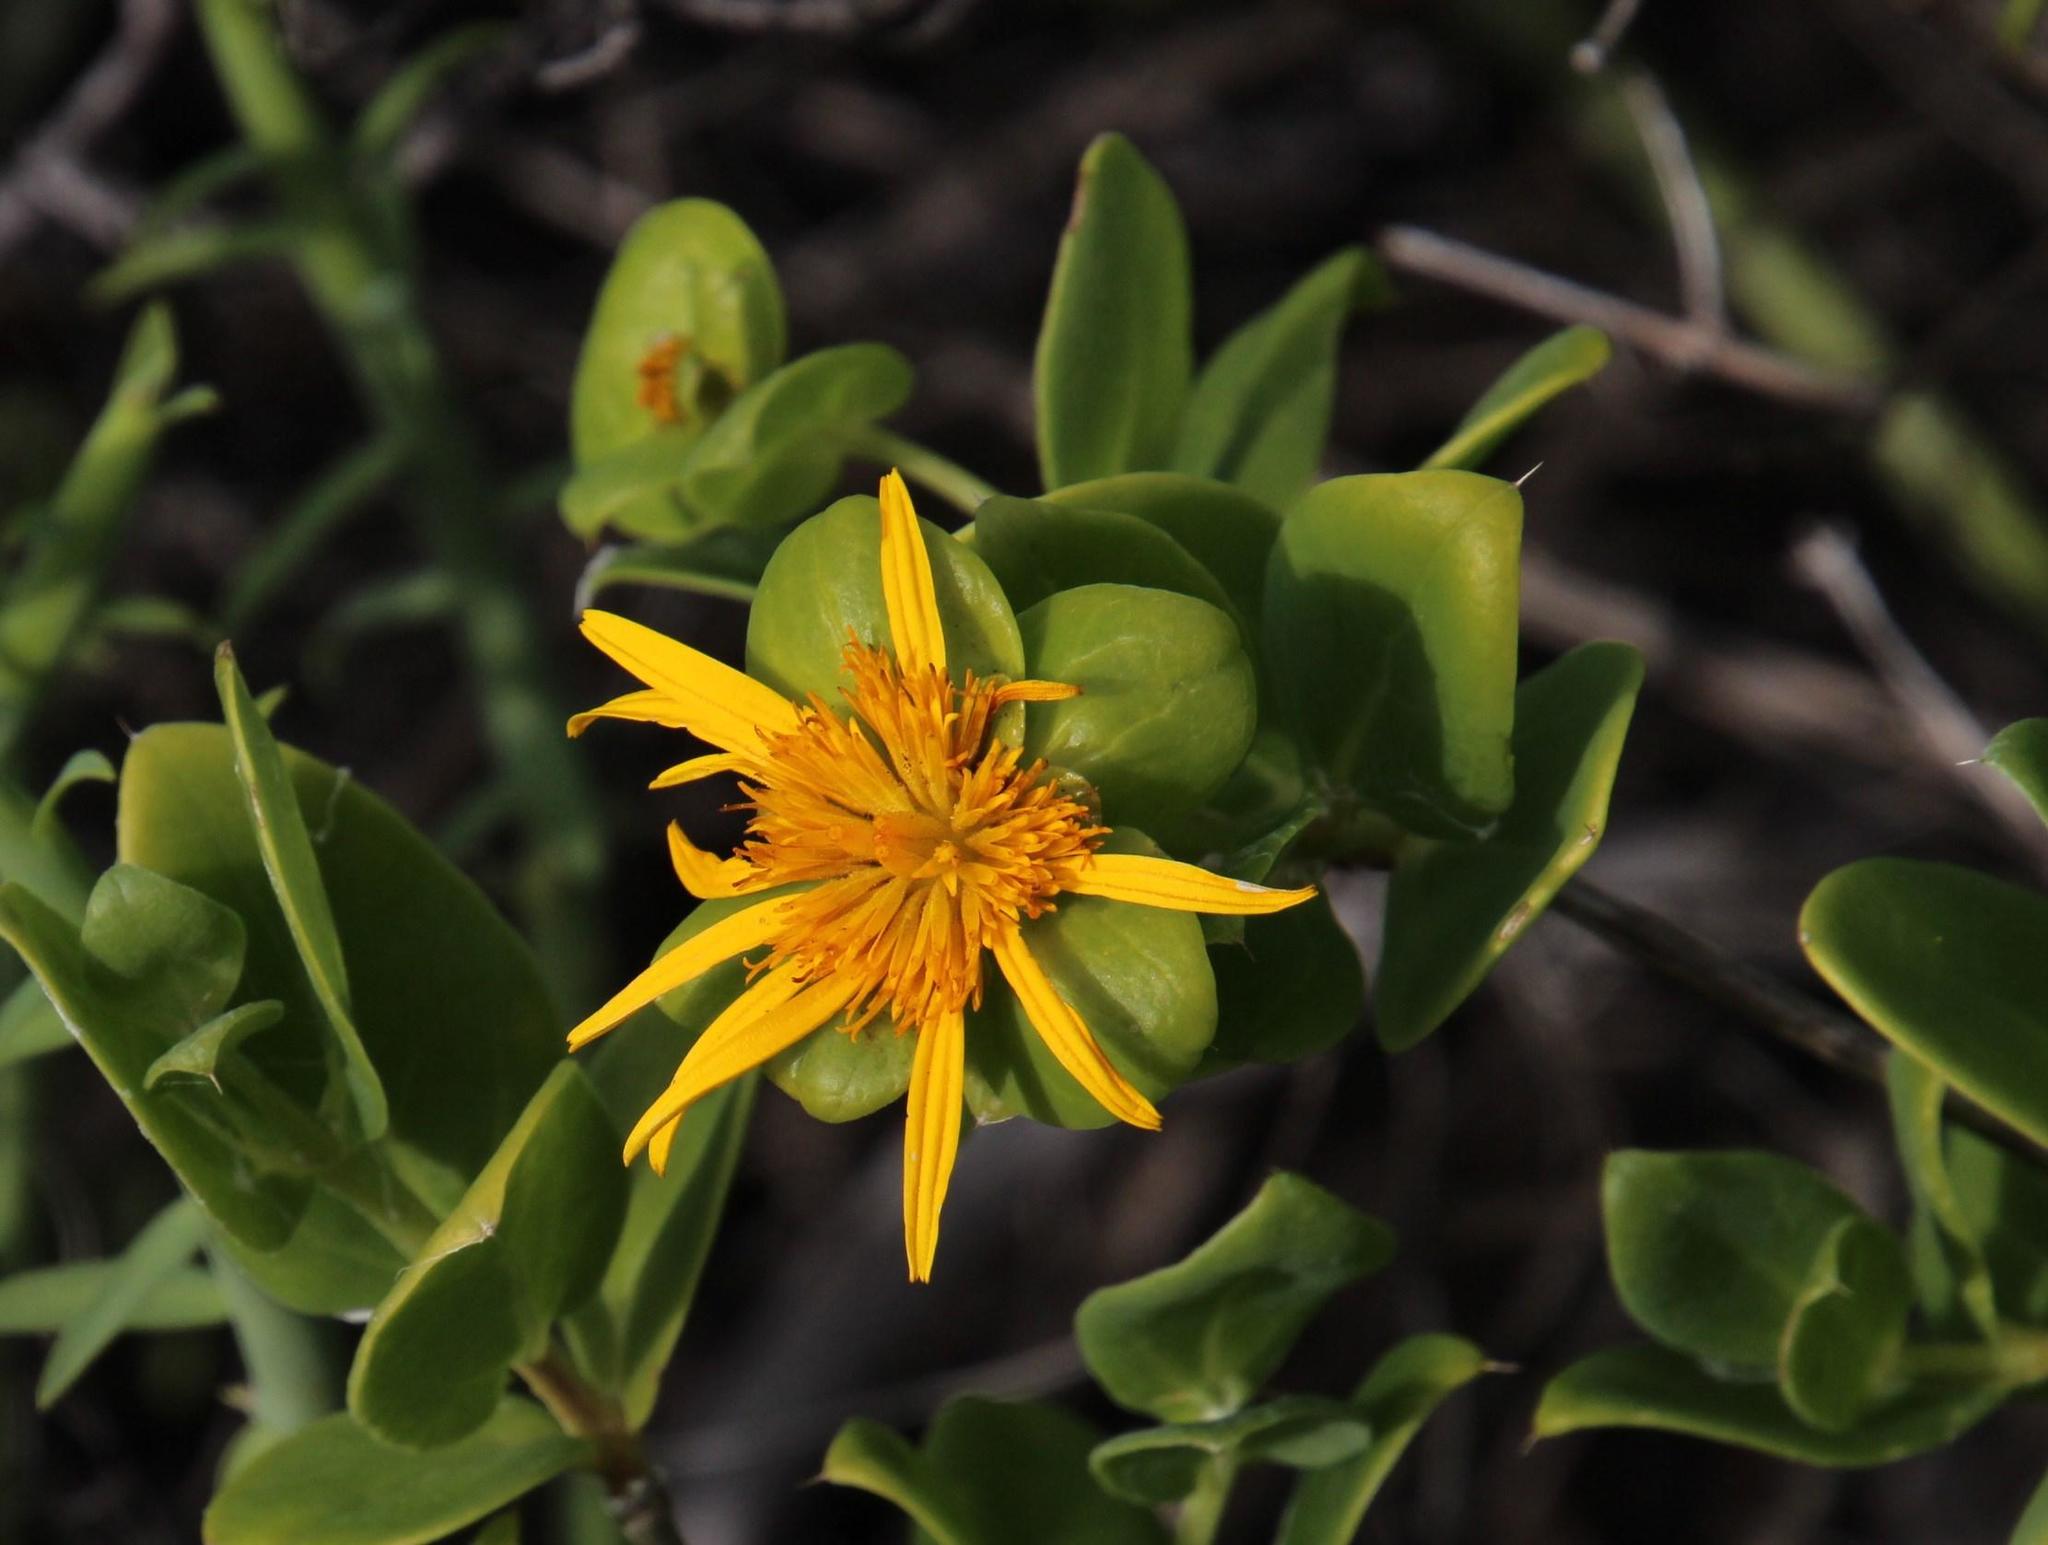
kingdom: Plantae
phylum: Tracheophyta
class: Magnoliopsida
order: Asterales
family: Asteraceae
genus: Didelta
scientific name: Didelta spinosa
